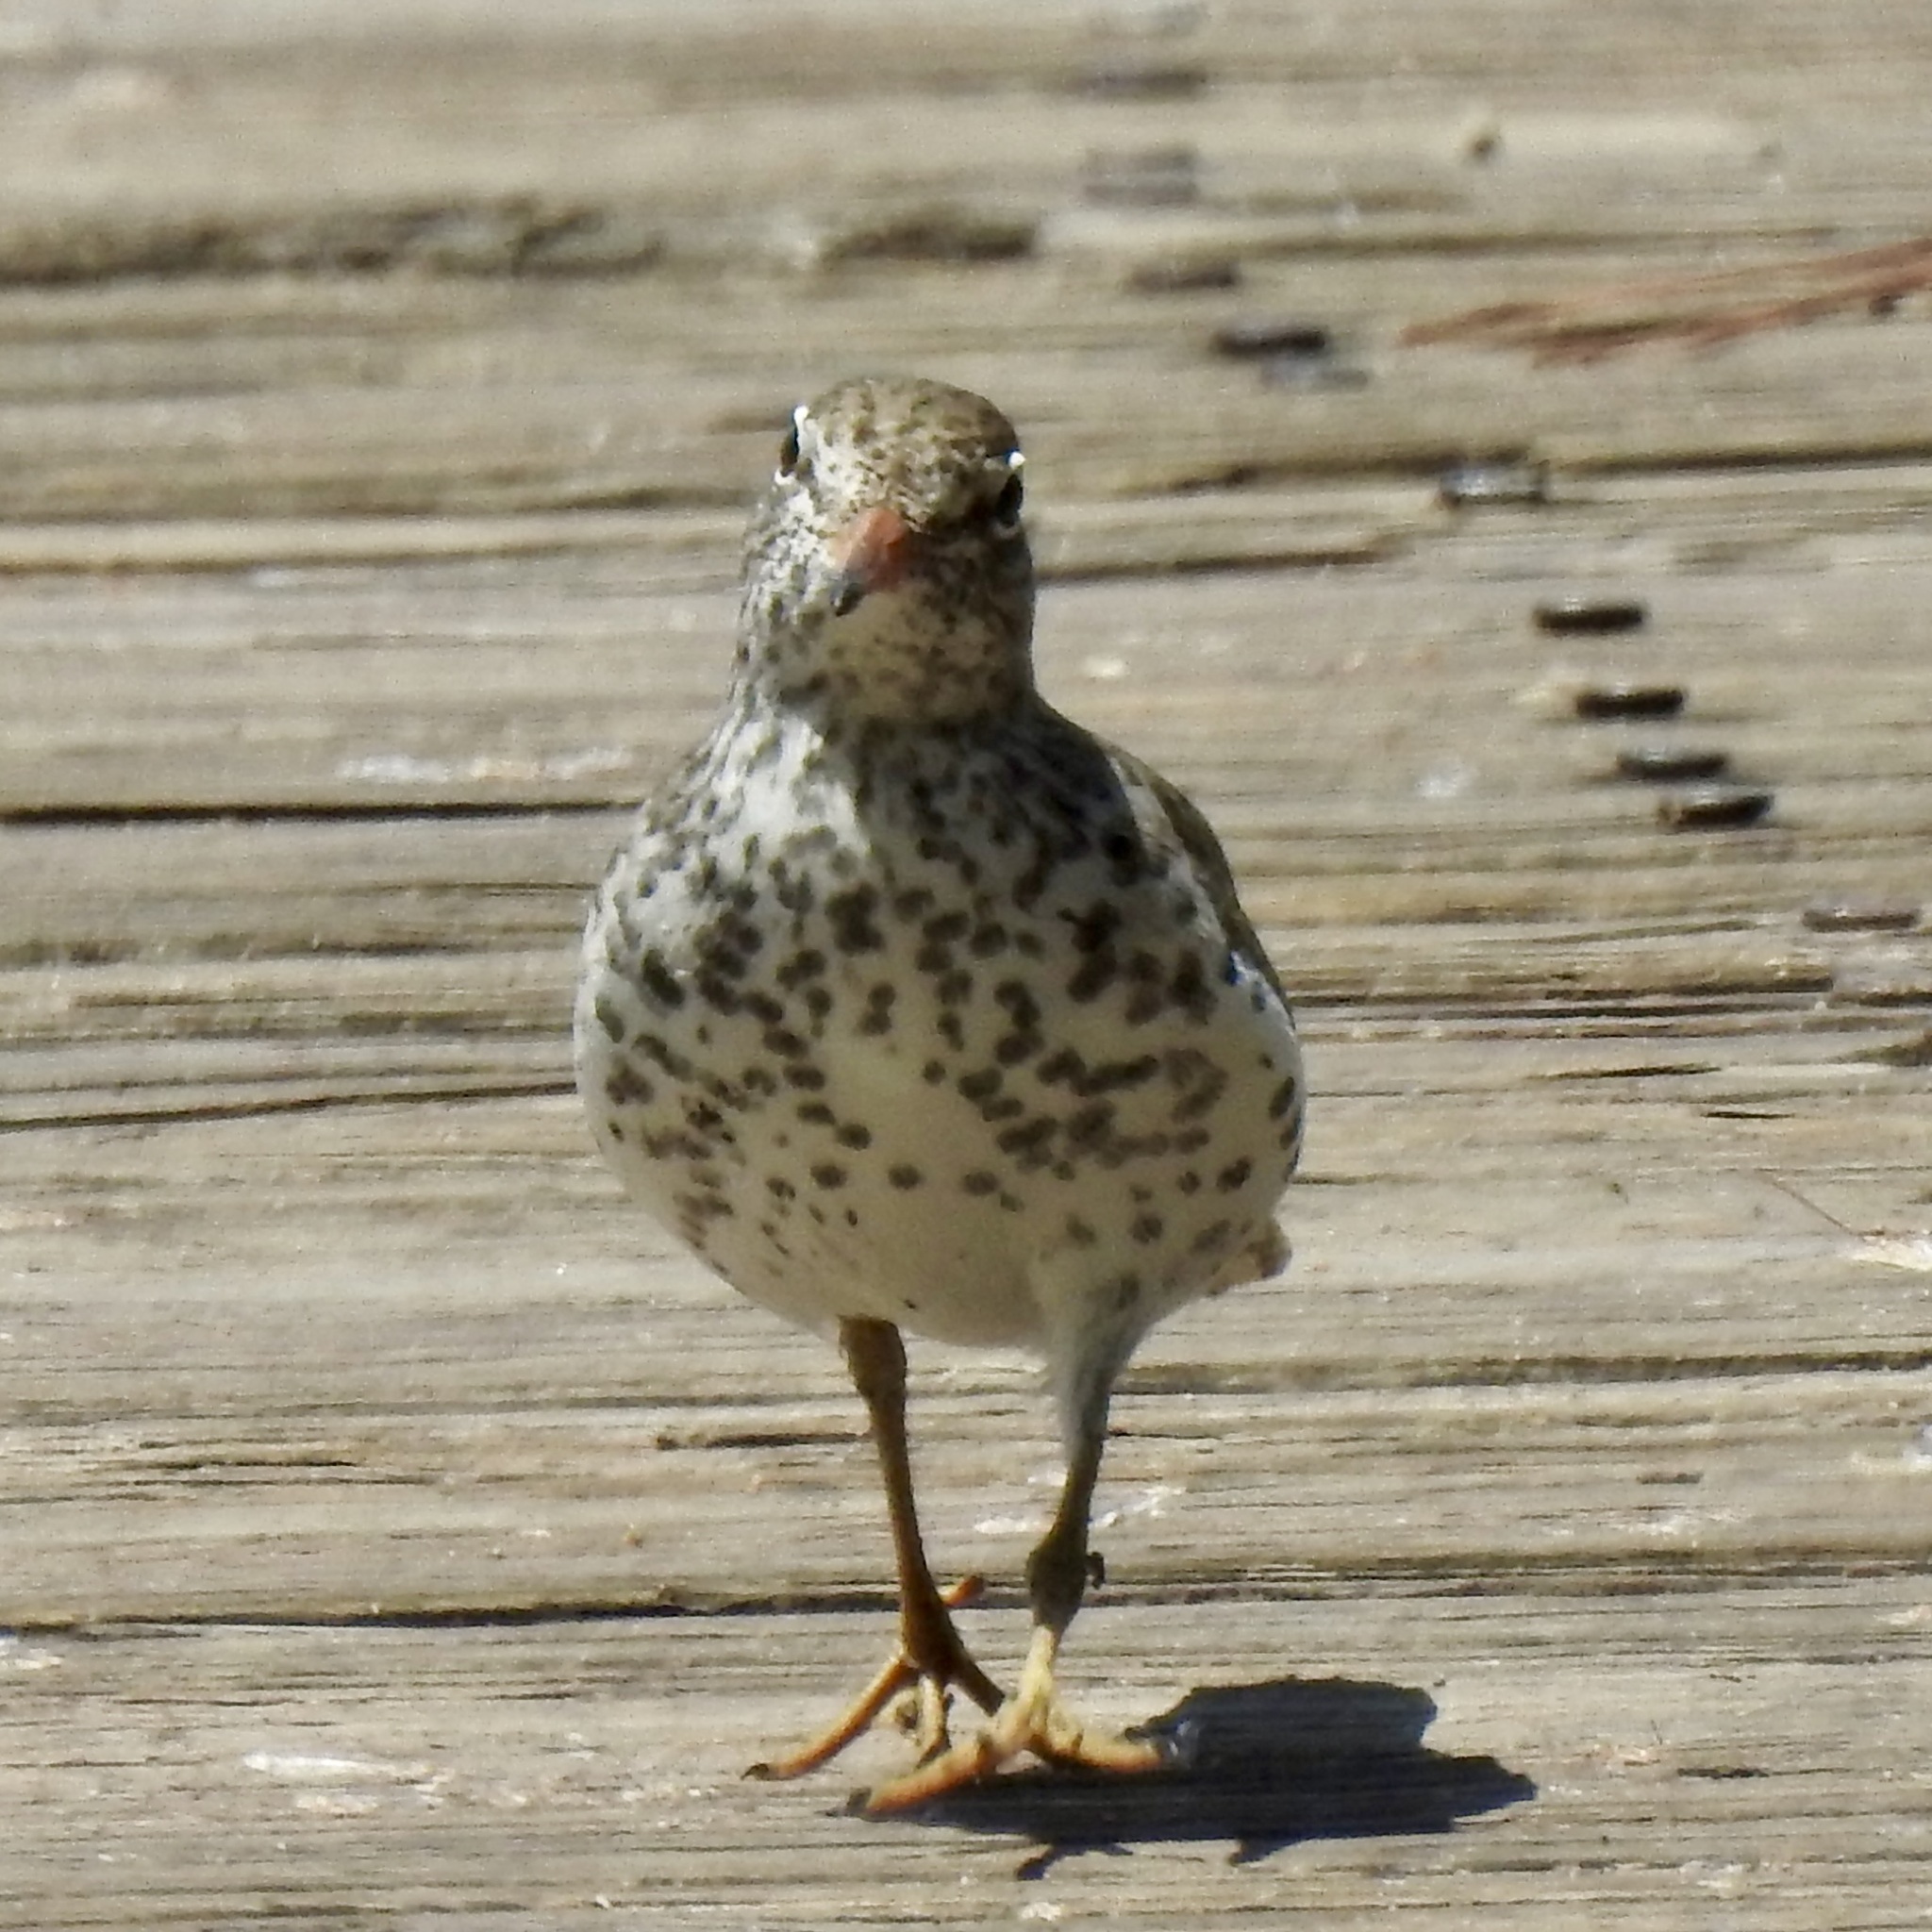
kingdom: Animalia
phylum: Chordata
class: Aves
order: Charadriiformes
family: Scolopacidae
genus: Actitis
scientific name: Actitis macularius
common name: Spotted sandpiper
